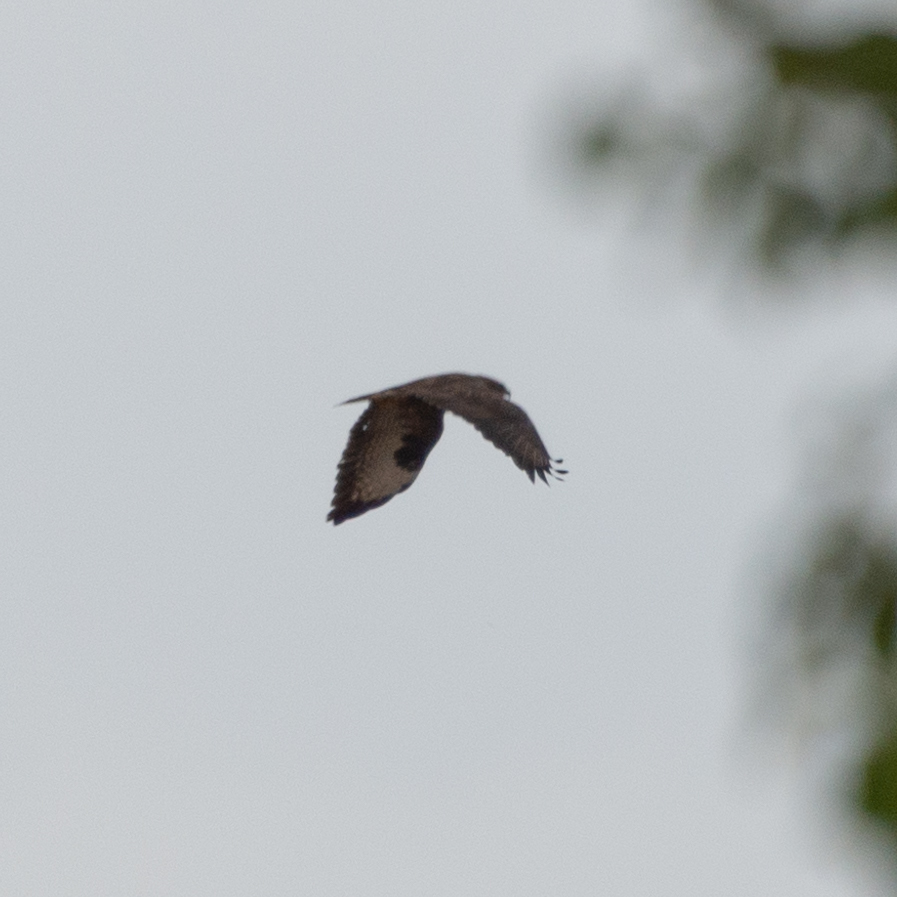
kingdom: Animalia
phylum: Chordata
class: Aves
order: Accipitriformes
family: Accipitridae
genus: Buteo
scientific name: Buteo buteo
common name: Common buzzard
